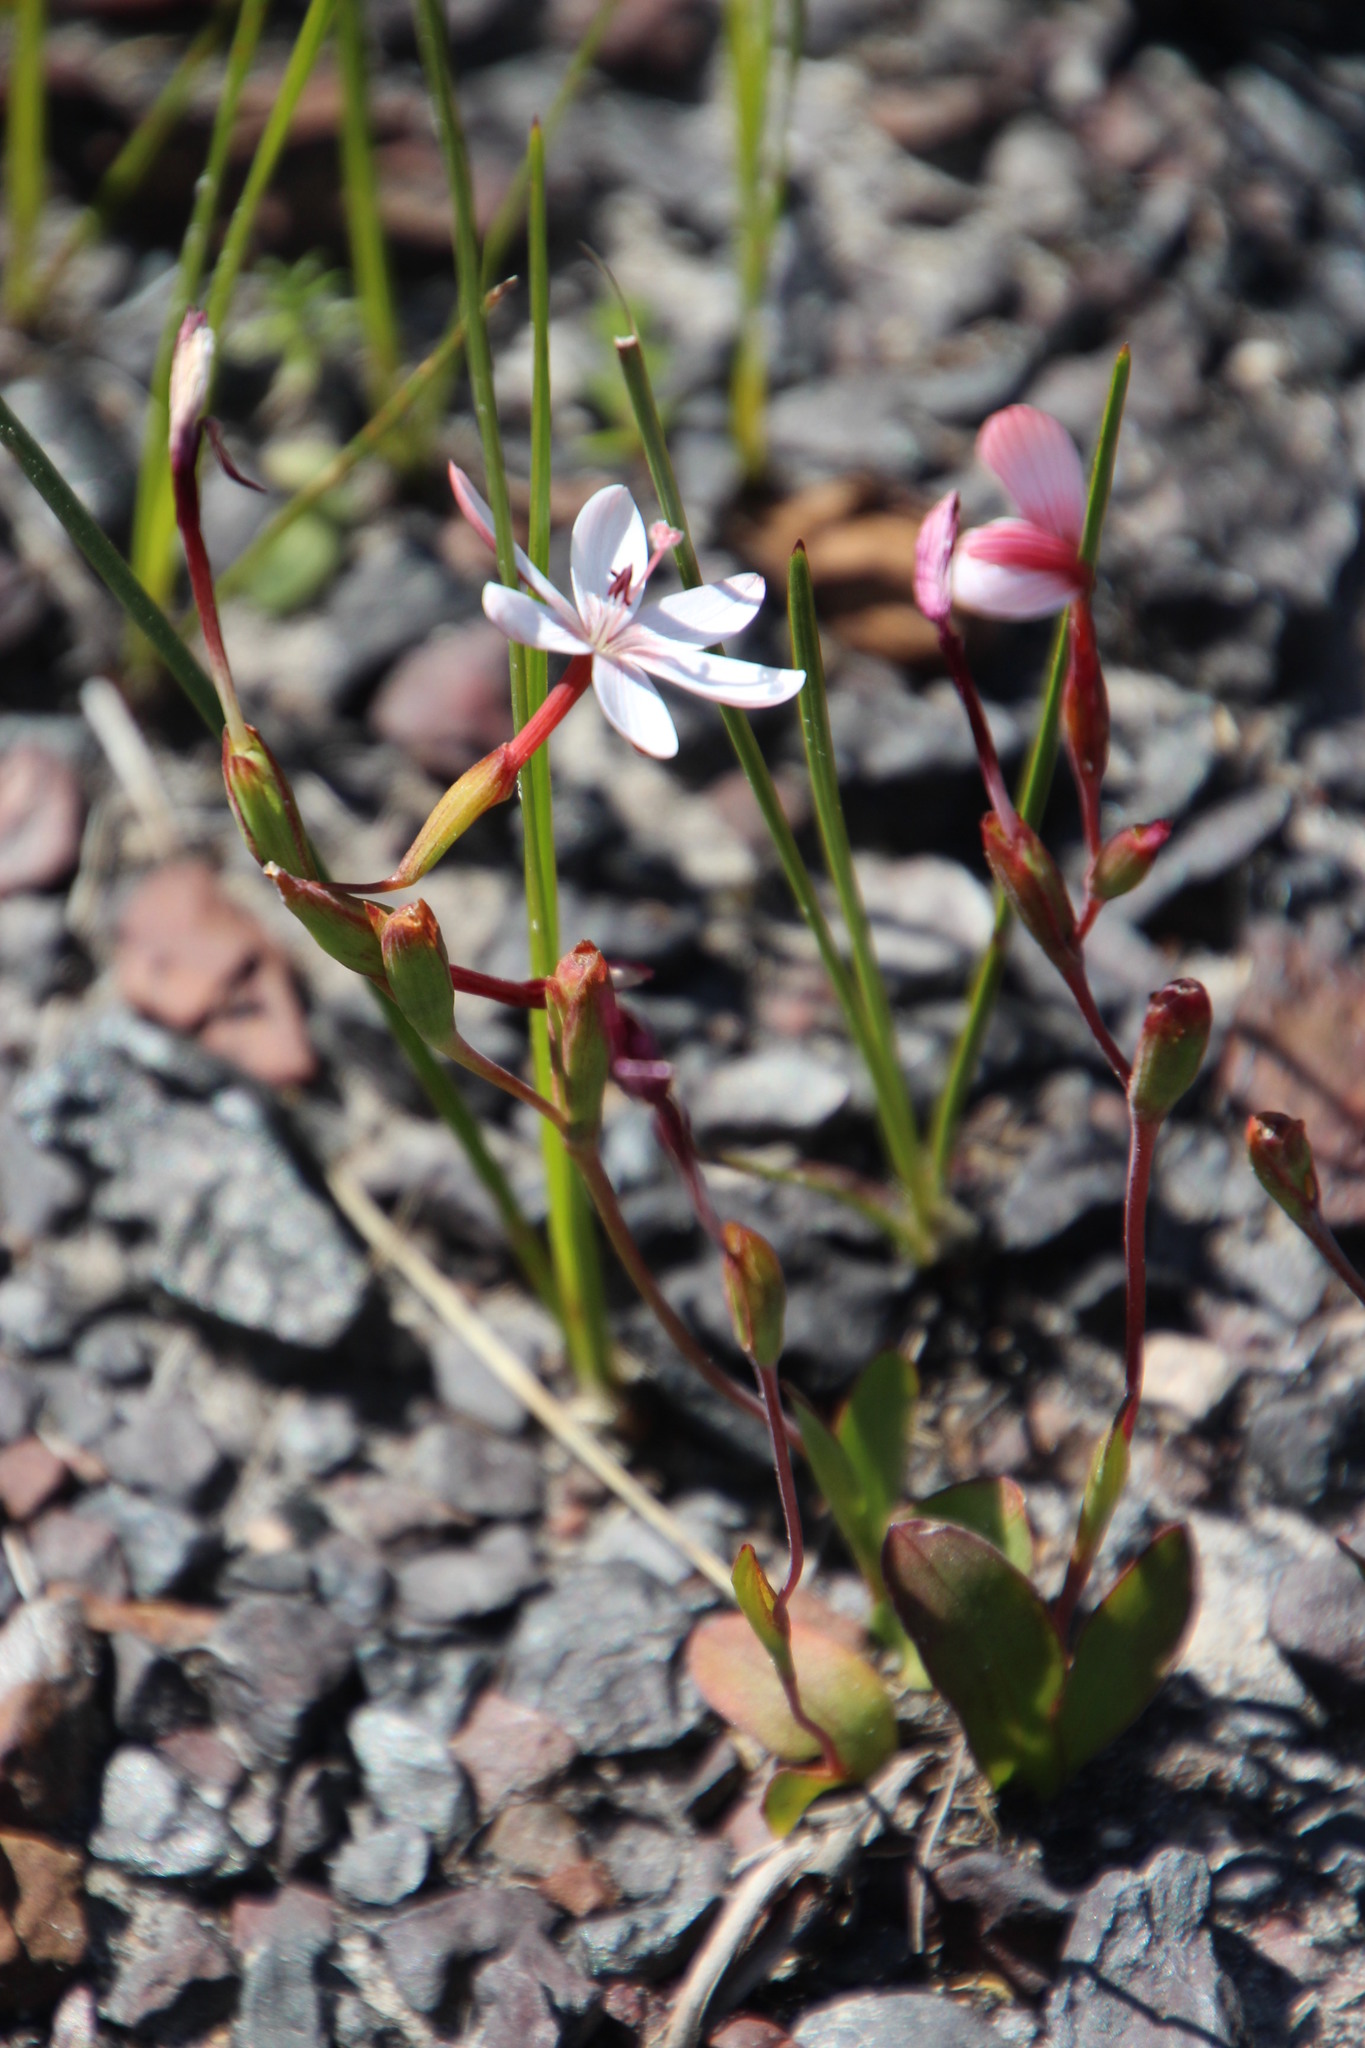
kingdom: Plantae
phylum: Tracheophyta
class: Liliopsida
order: Asparagales
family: Iridaceae
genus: Geissorhiza
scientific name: Geissorhiza ovata
